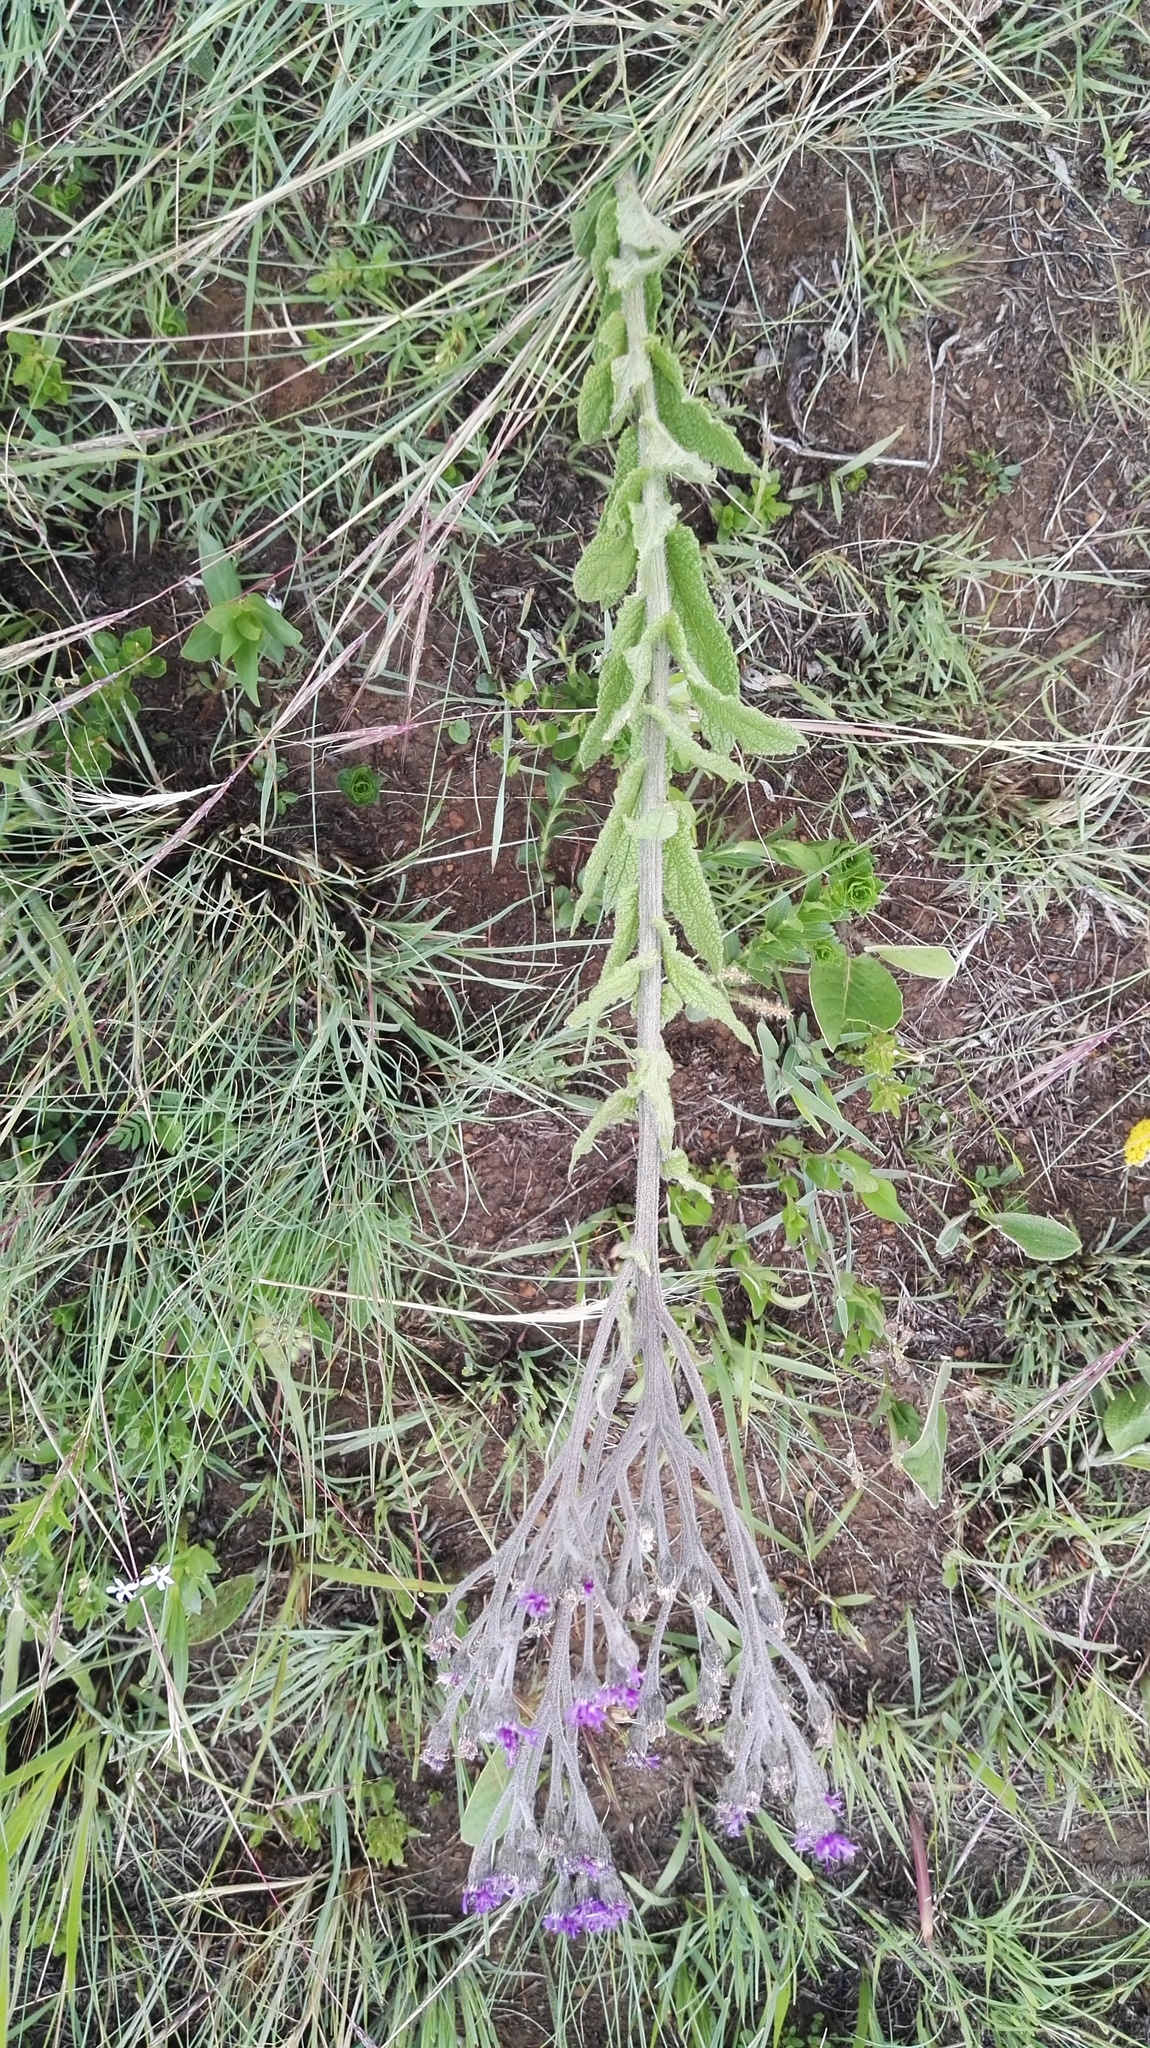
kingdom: Plantae
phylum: Tracheophyta
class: Magnoliopsida
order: Asterales
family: Asteraceae
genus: Hilliardiella
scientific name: Hilliardiella oligocephala
